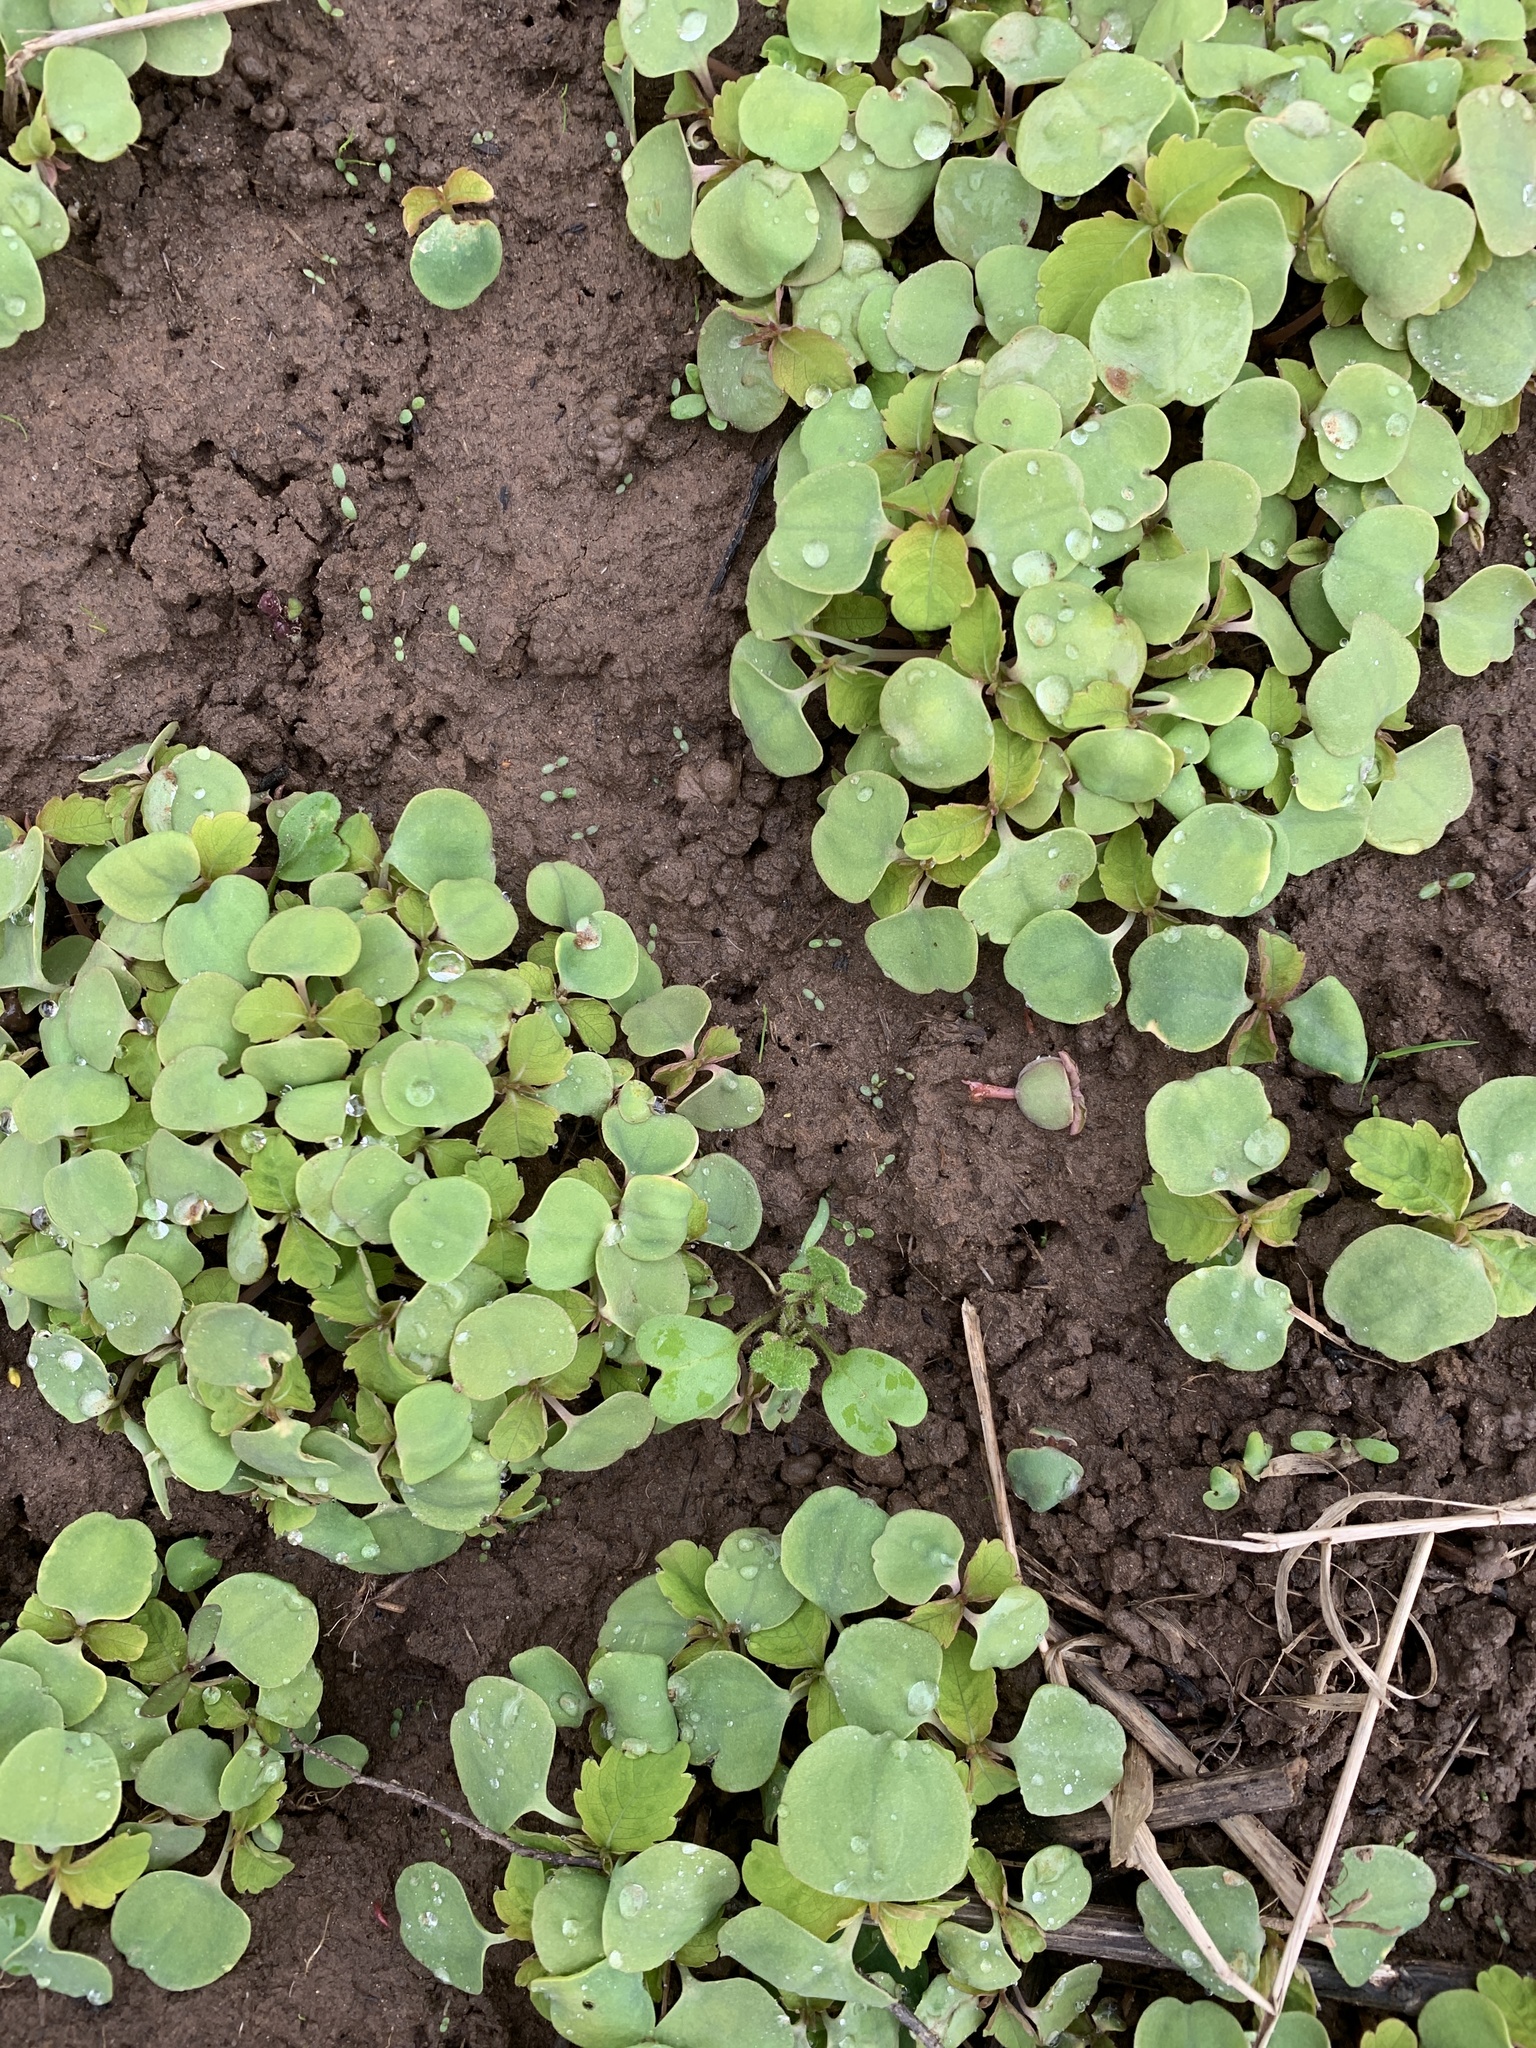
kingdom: Plantae
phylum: Tracheophyta
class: Magnoliopsida
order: Ericales
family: Balsaminaceae
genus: Impatiens
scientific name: Impatiens capensis
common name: Orange balsam
